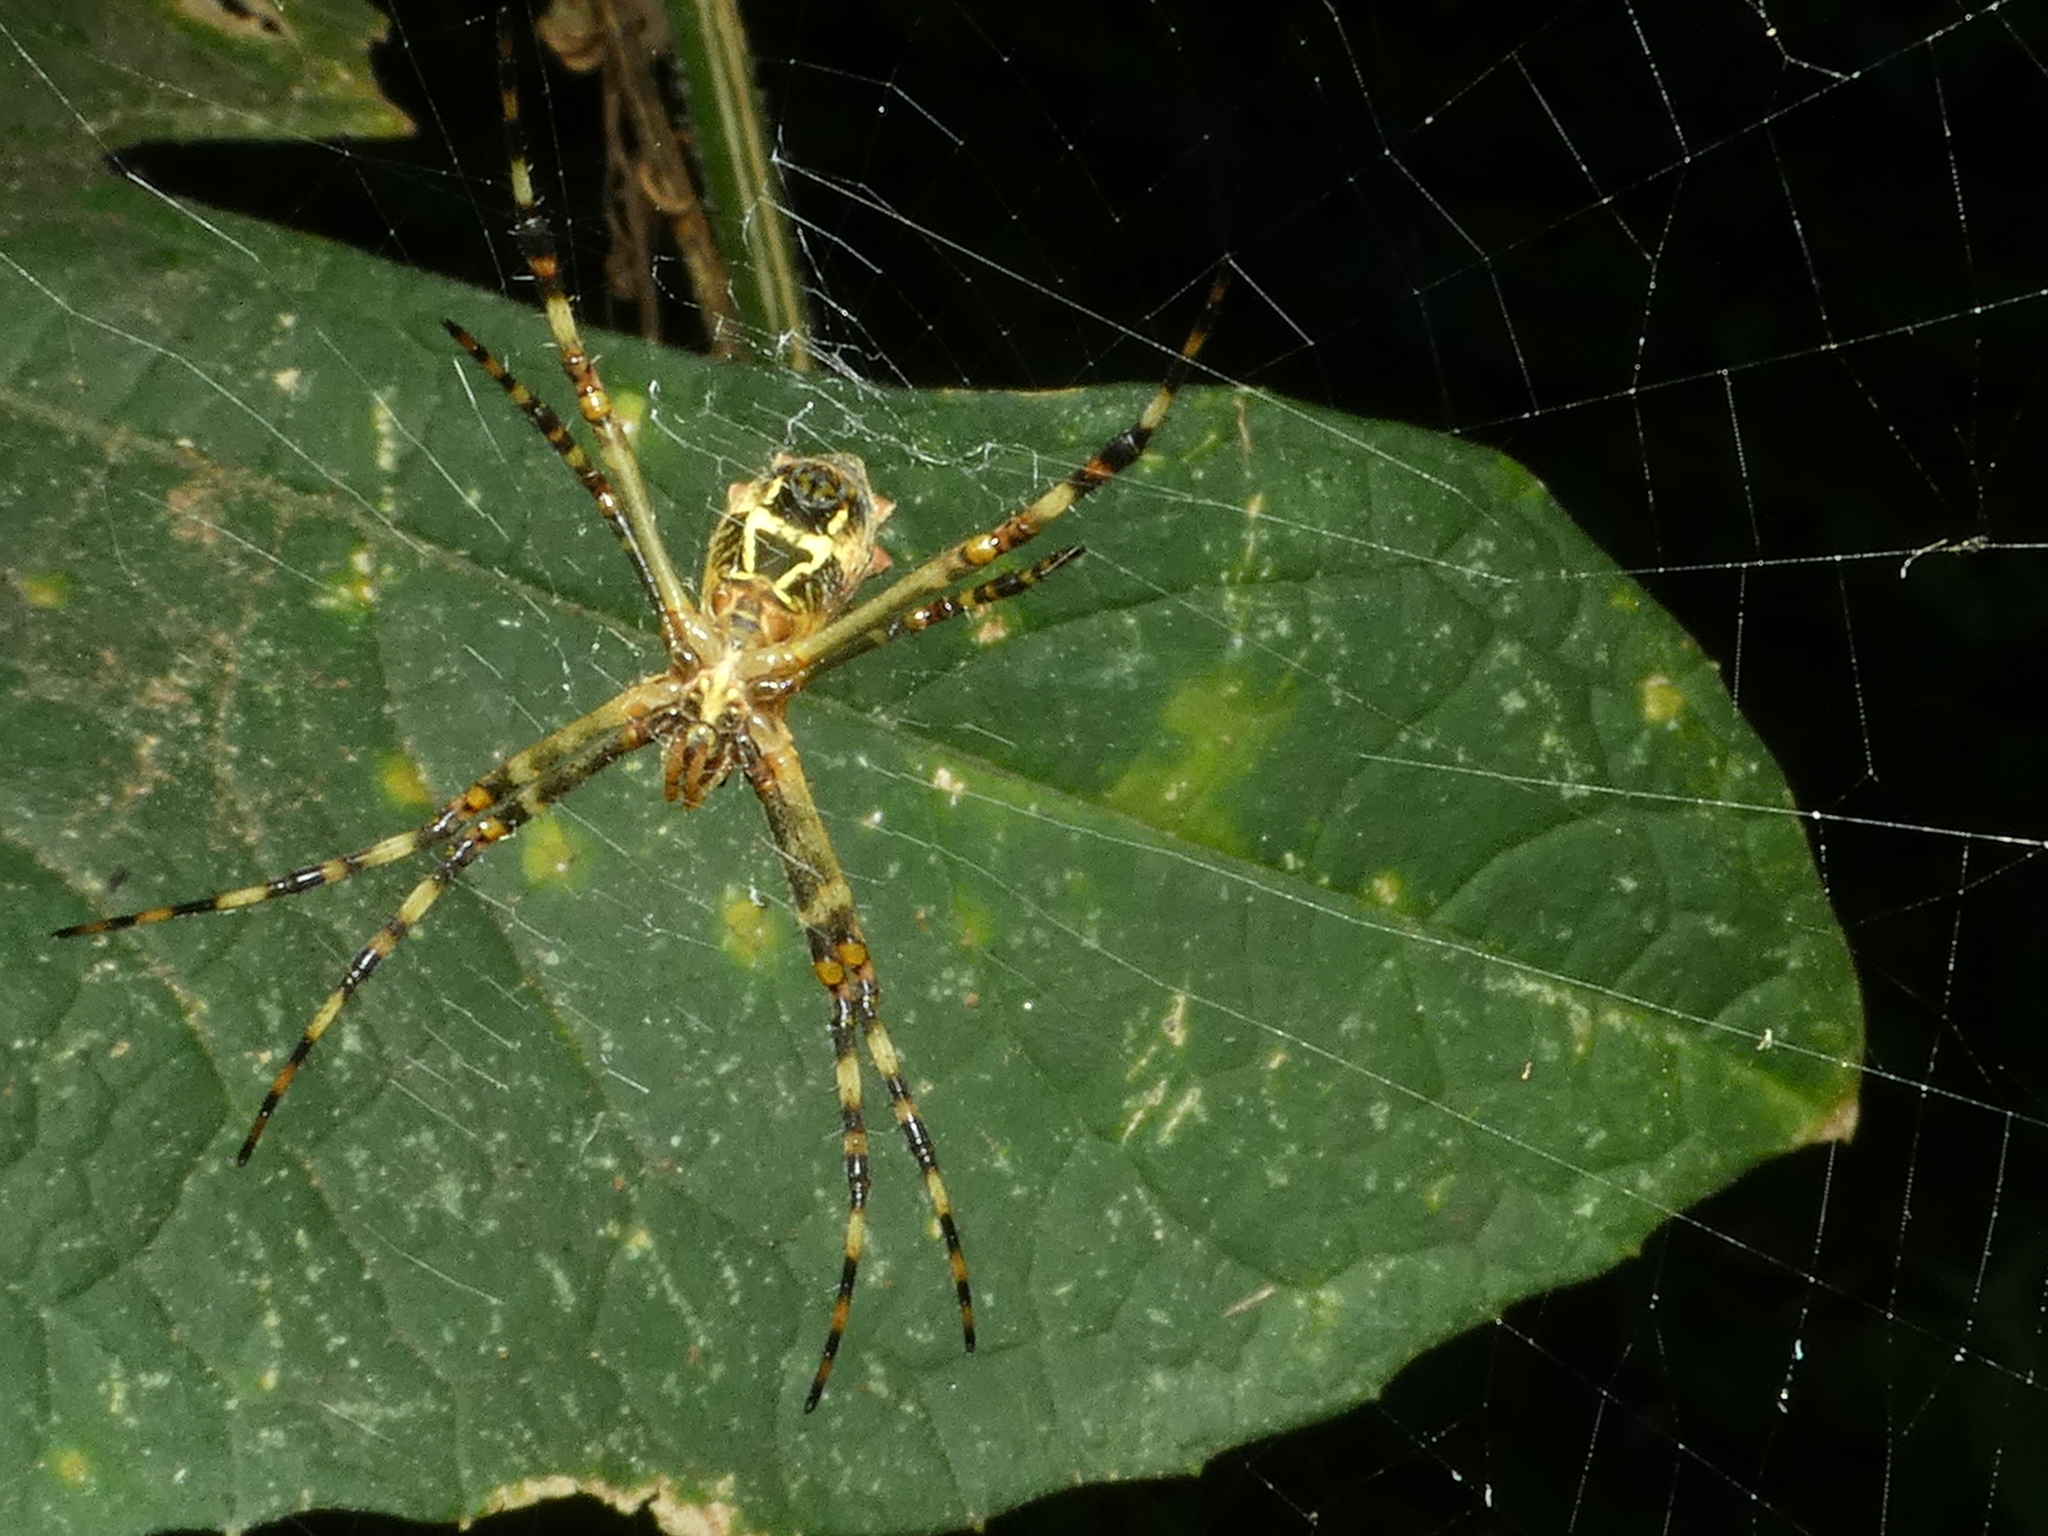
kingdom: Animalia
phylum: Arthropoda
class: Arachnida
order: Araneae
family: Araneidae
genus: Argiope
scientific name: Argiope argentata
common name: Orb weavers
